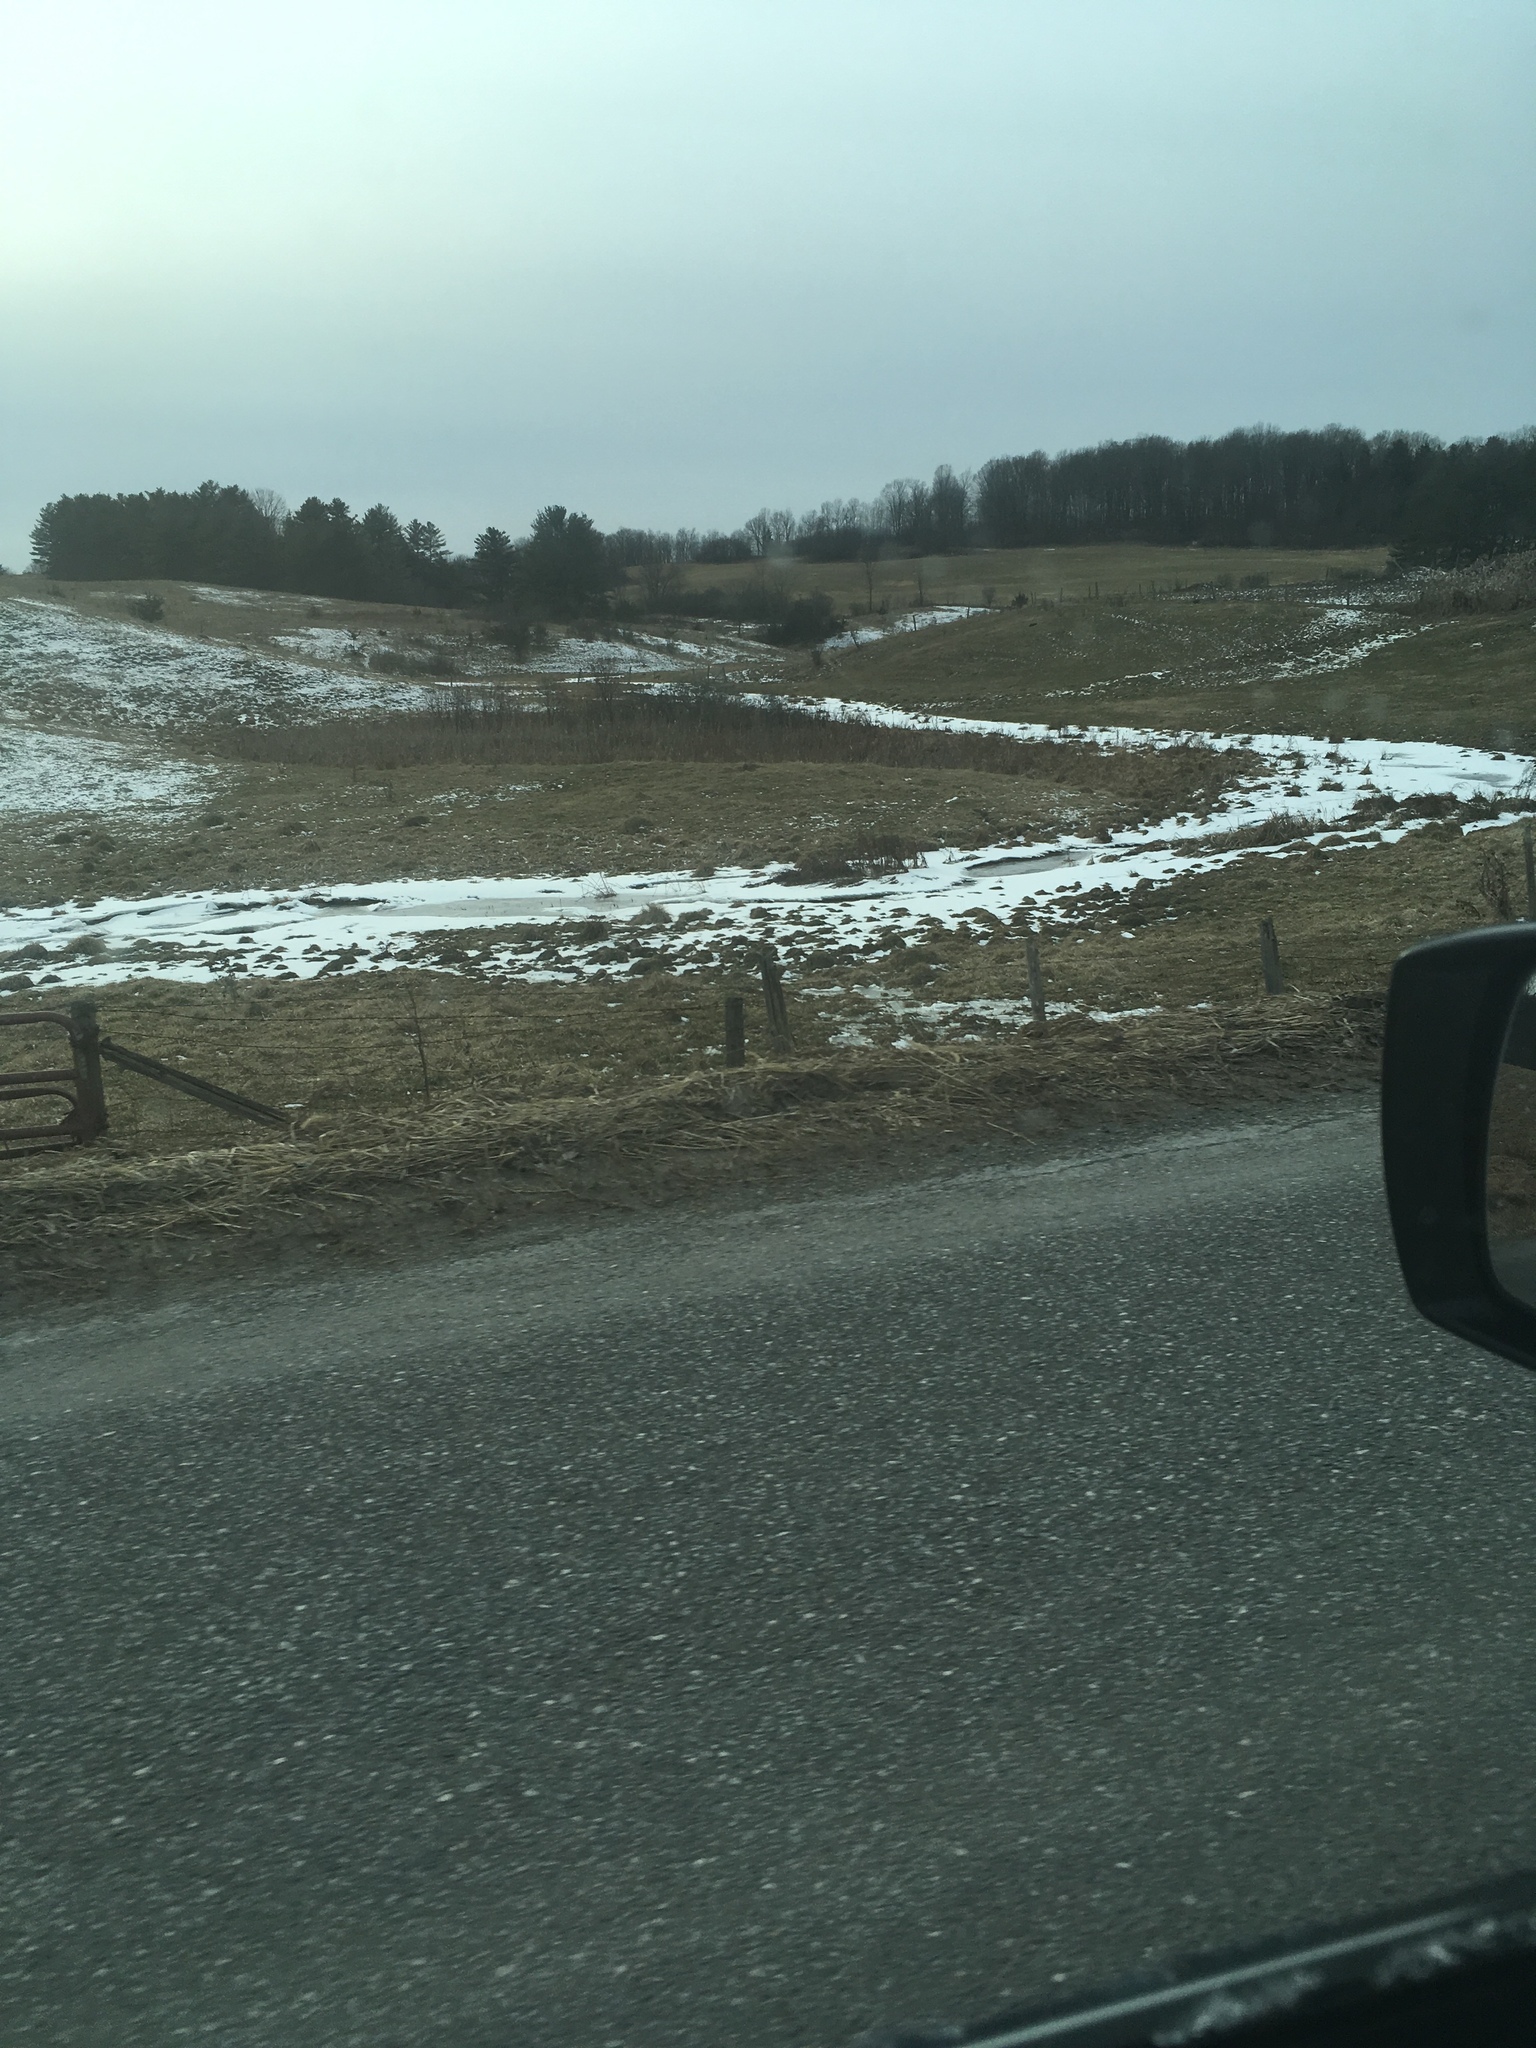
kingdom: Plantae
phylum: Tracheophyta
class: Pinopsida
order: Pinales
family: Pinaceae
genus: Pinus
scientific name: Pinus strobus
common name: Weymouth pine
